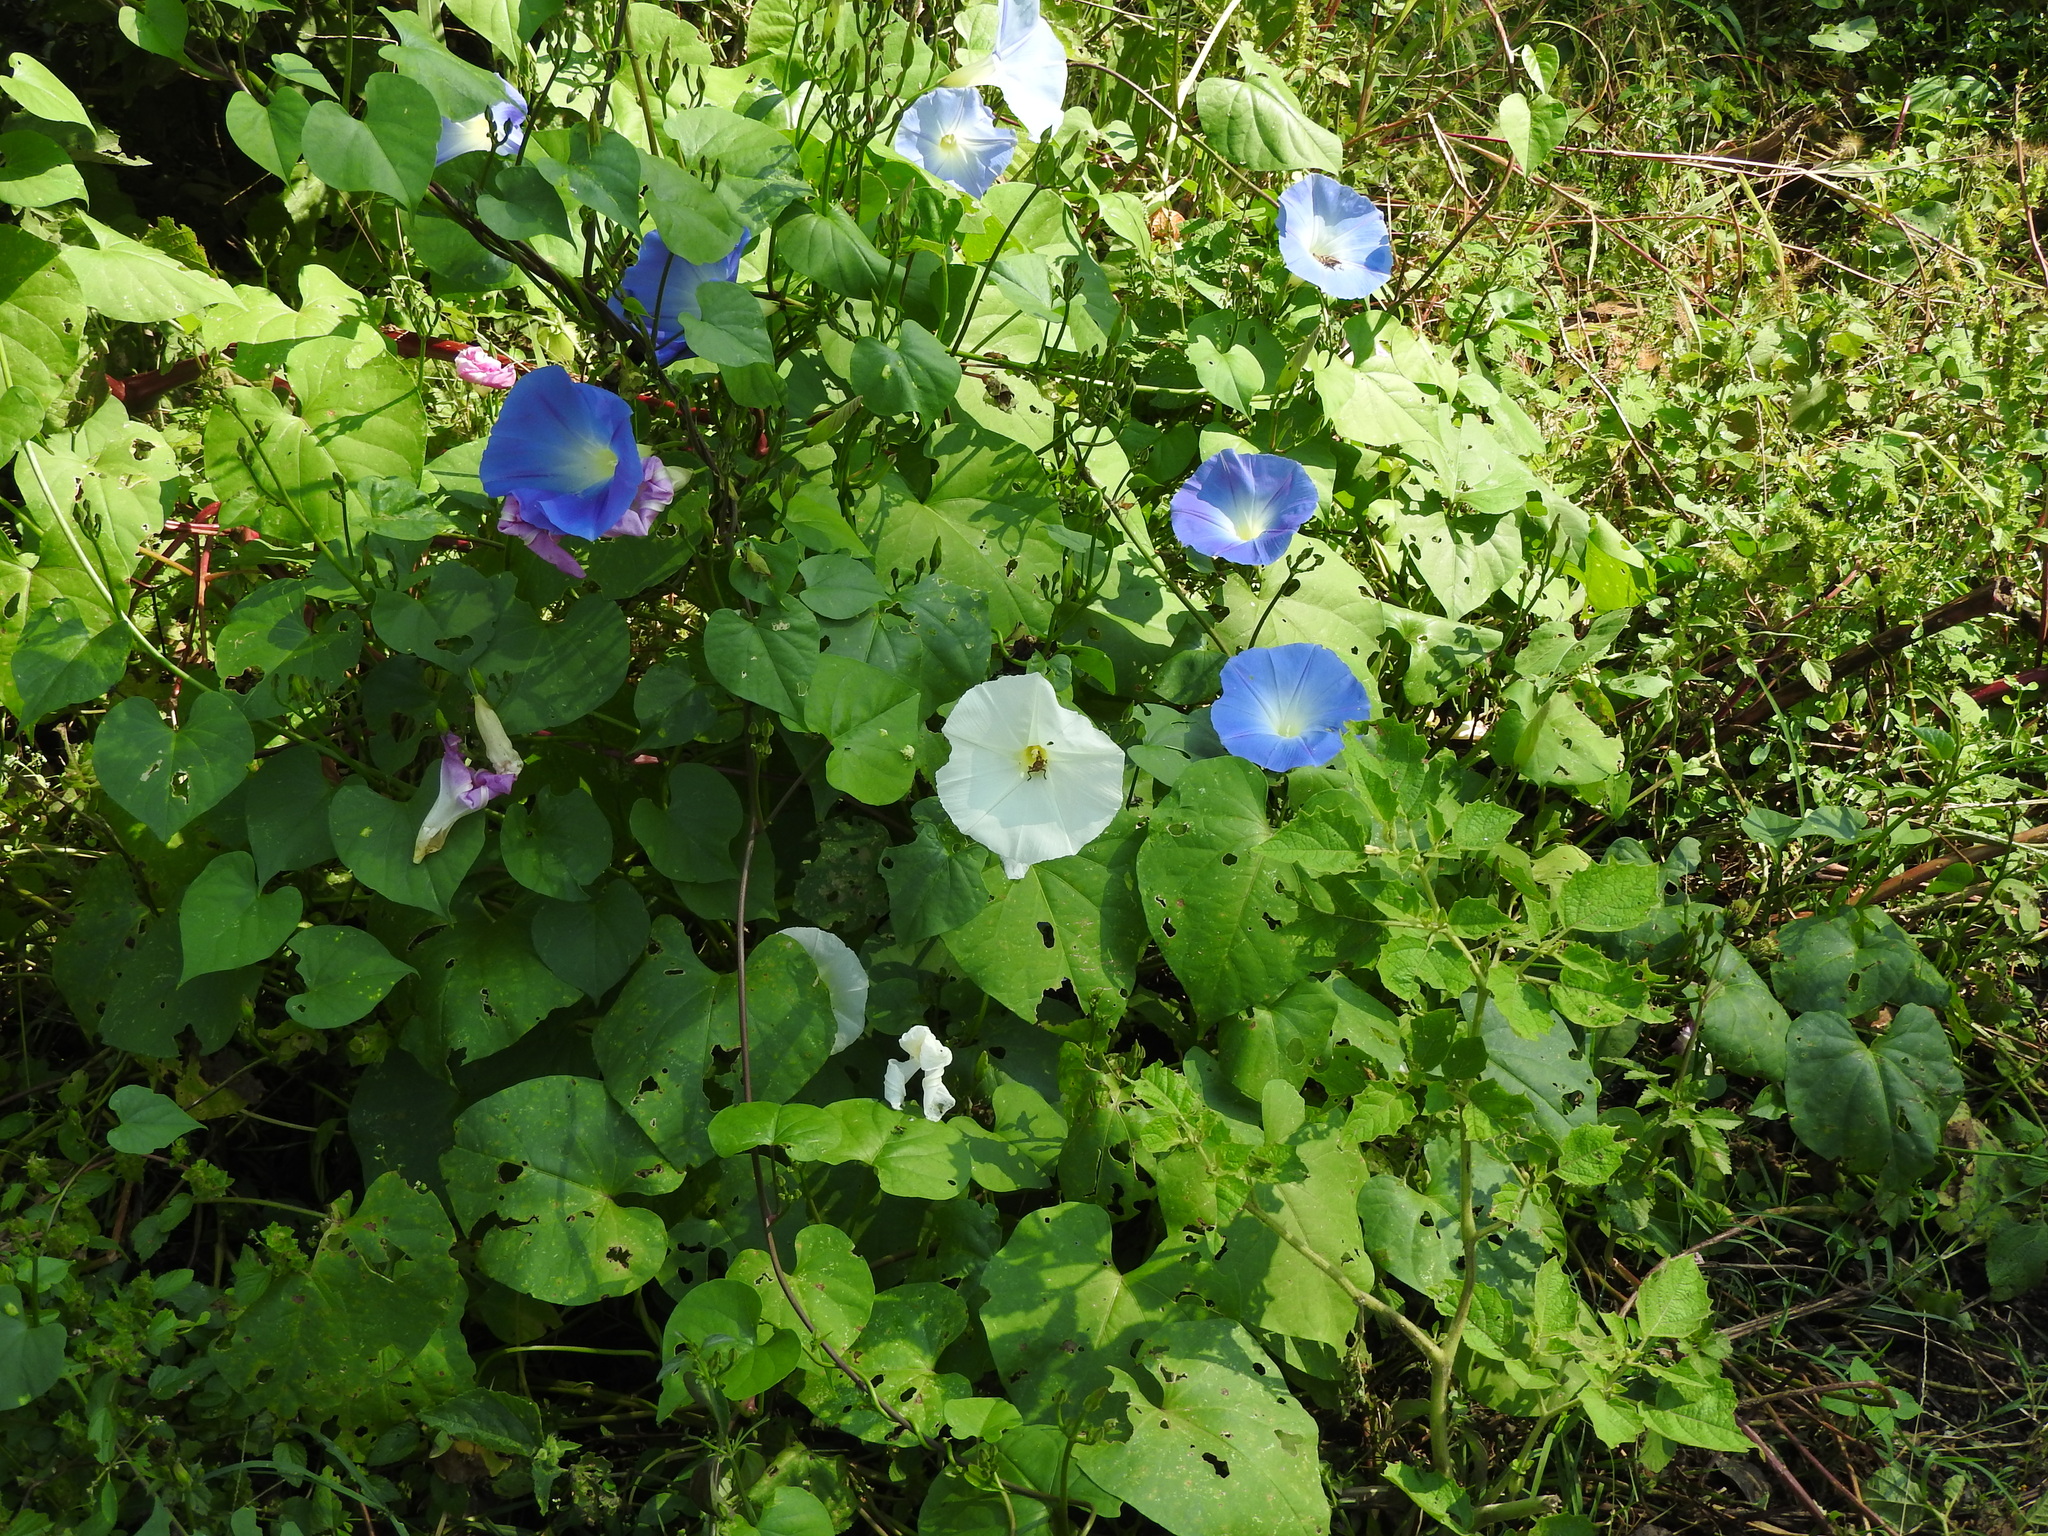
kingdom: Plantae
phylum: Tracheophyta
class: Magnoliopsida
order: Solanales
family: Convolvulaceae
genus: Ipomoea
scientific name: Ipomoea tricolor
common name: Morning-glory
